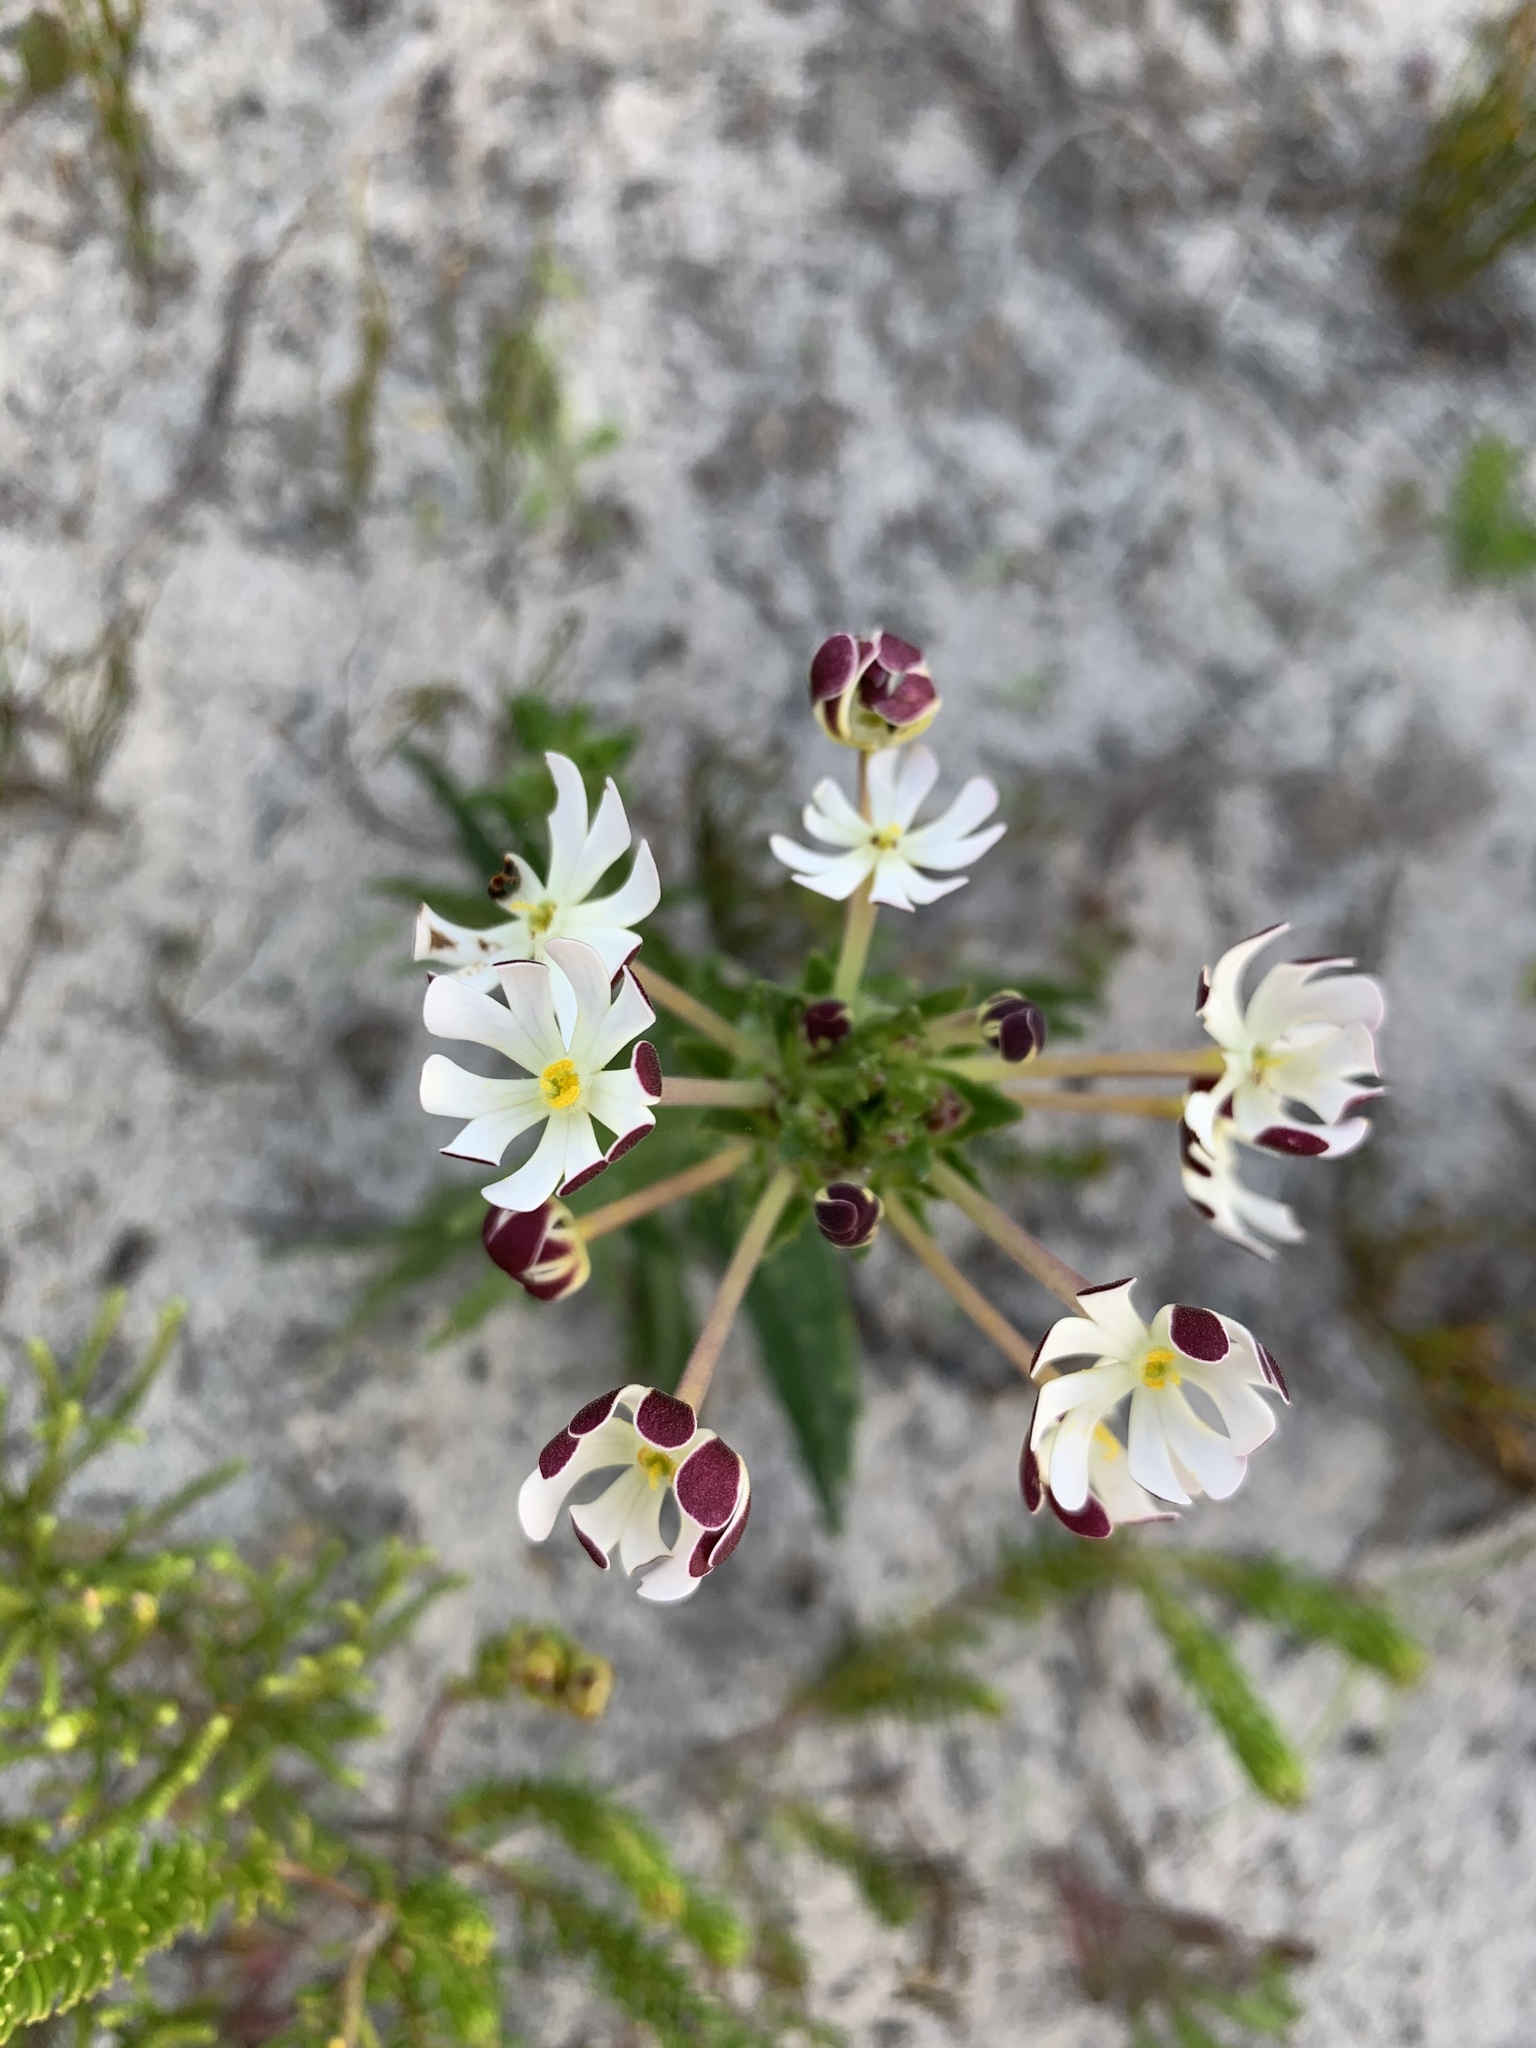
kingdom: Plantae
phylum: Tracheophyta
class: Magnoliopsida
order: Lamiales
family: Scrophulariaceae
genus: Zaluzianskya
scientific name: Zaluzianskya capensis
